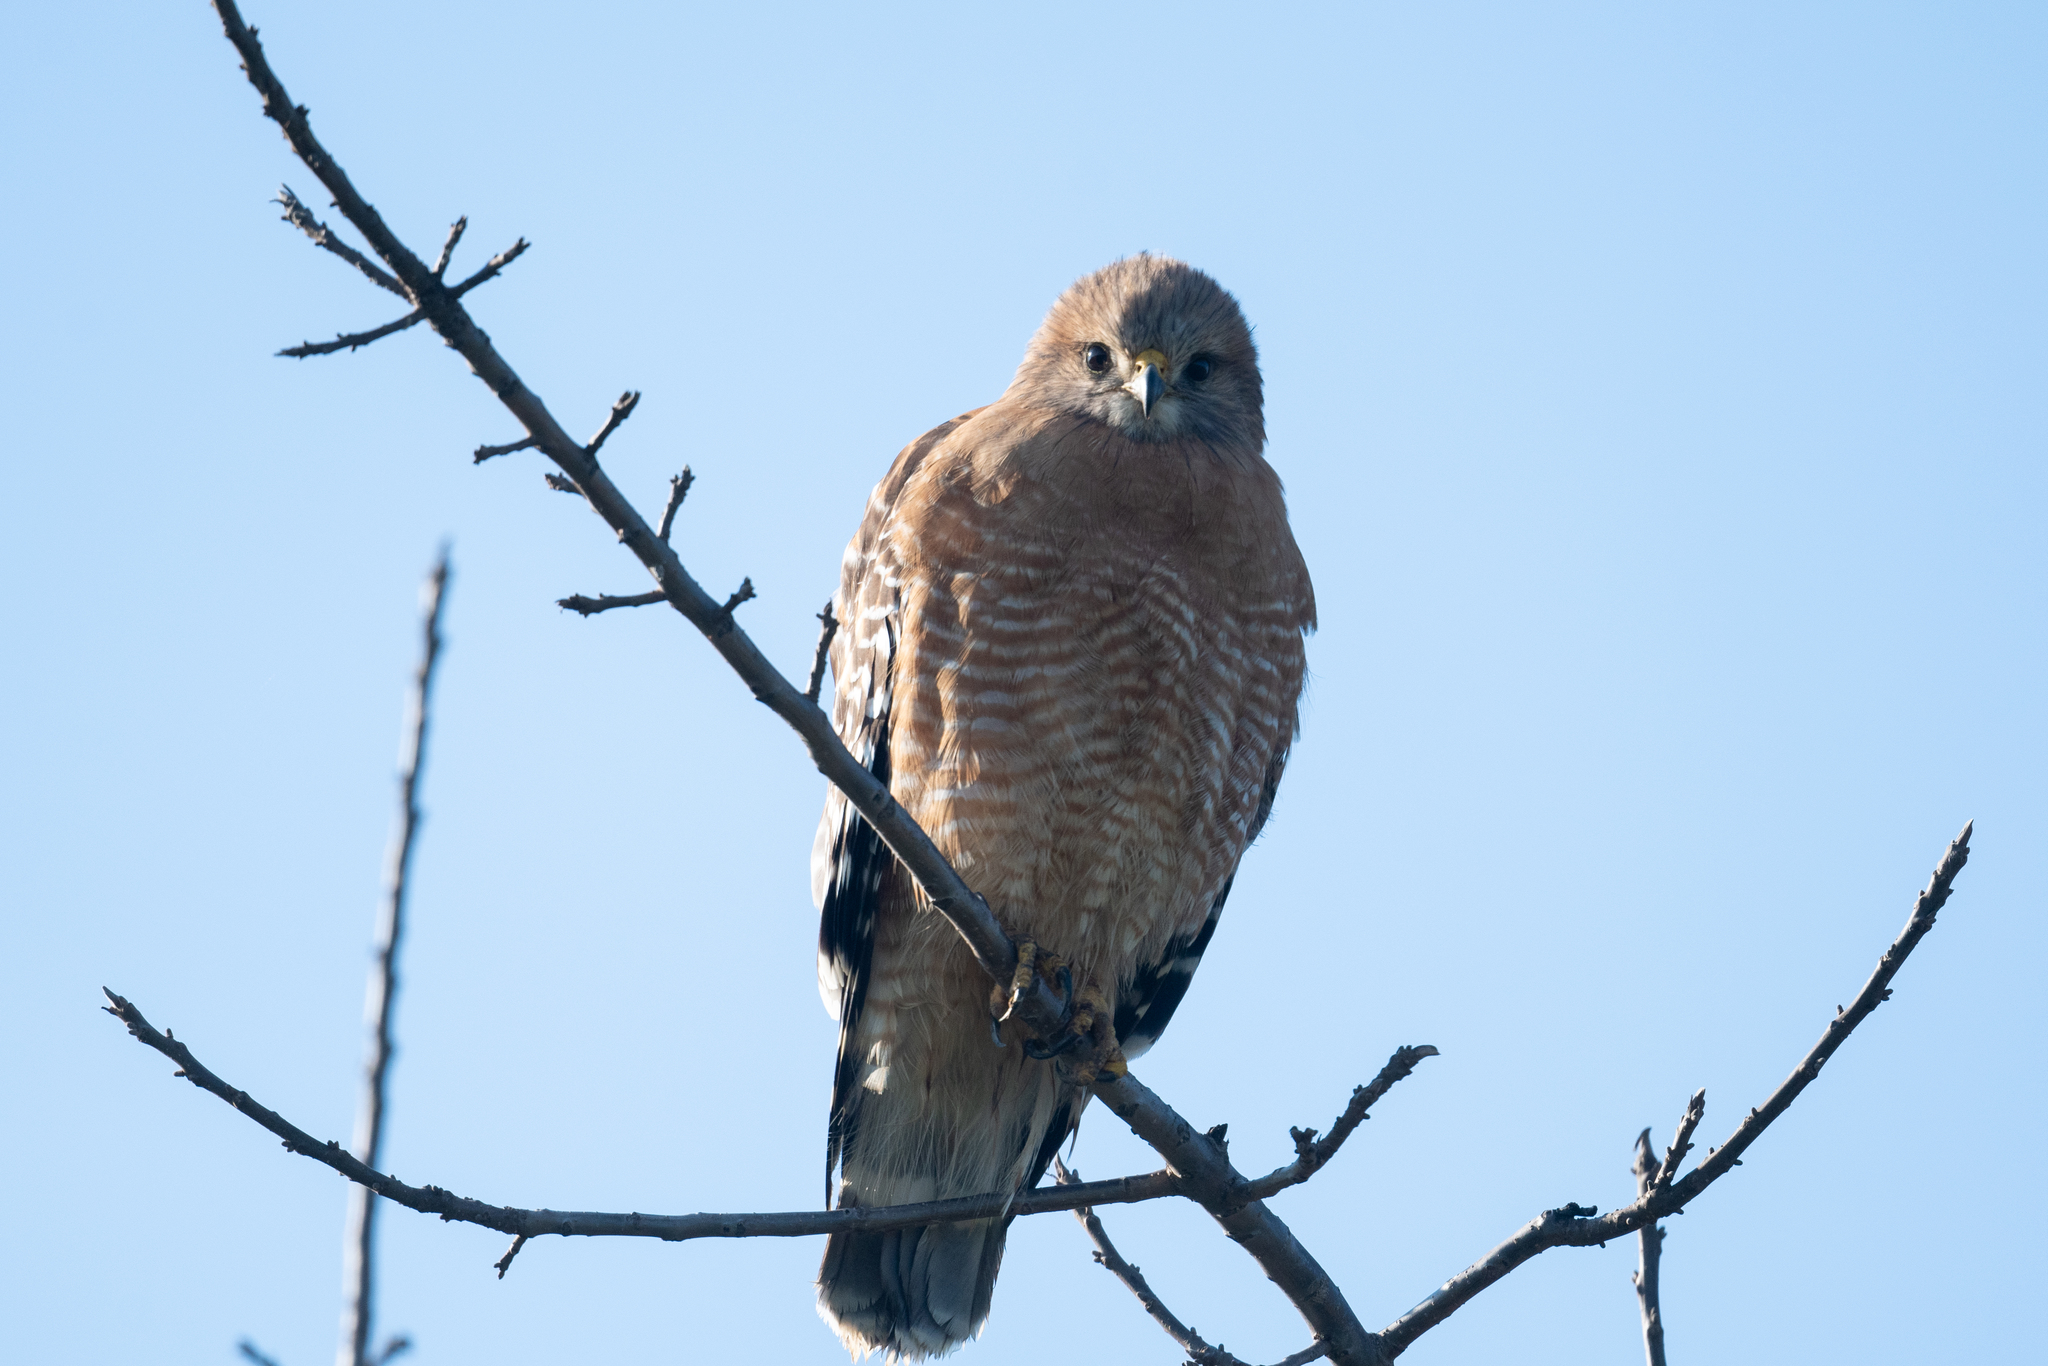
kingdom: Animalia
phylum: Chordata
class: Aves
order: Accipitriformes
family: Accipitridae
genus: Buteo
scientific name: Buteo lineatus
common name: Red-shouldered hawk
